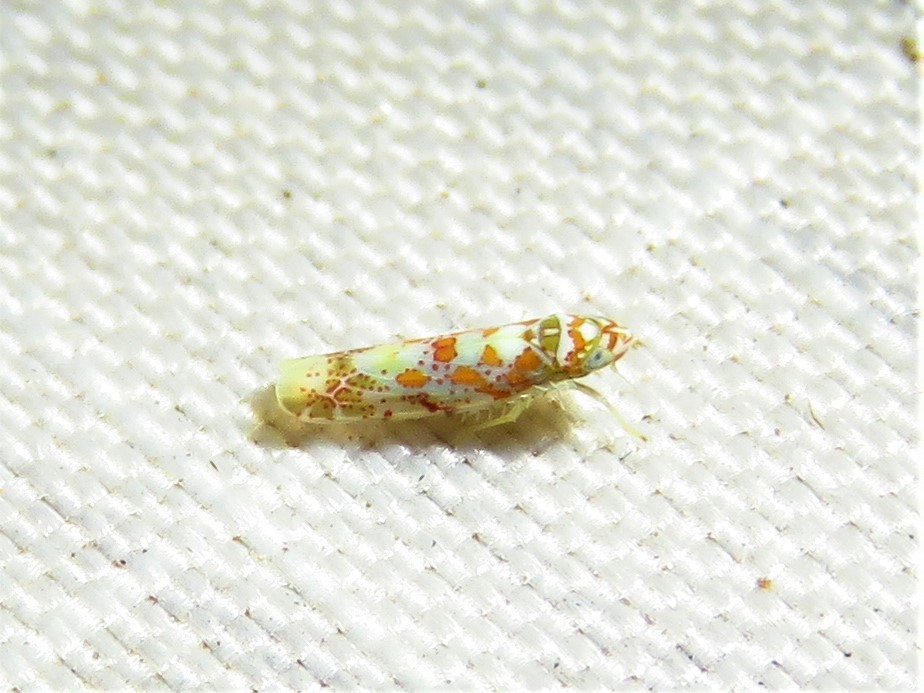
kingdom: Animalia
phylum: Arthropoda
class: Insecta
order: Hemiptera
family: Cicadellidae
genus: Dikrella
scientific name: Dikrella maculata
